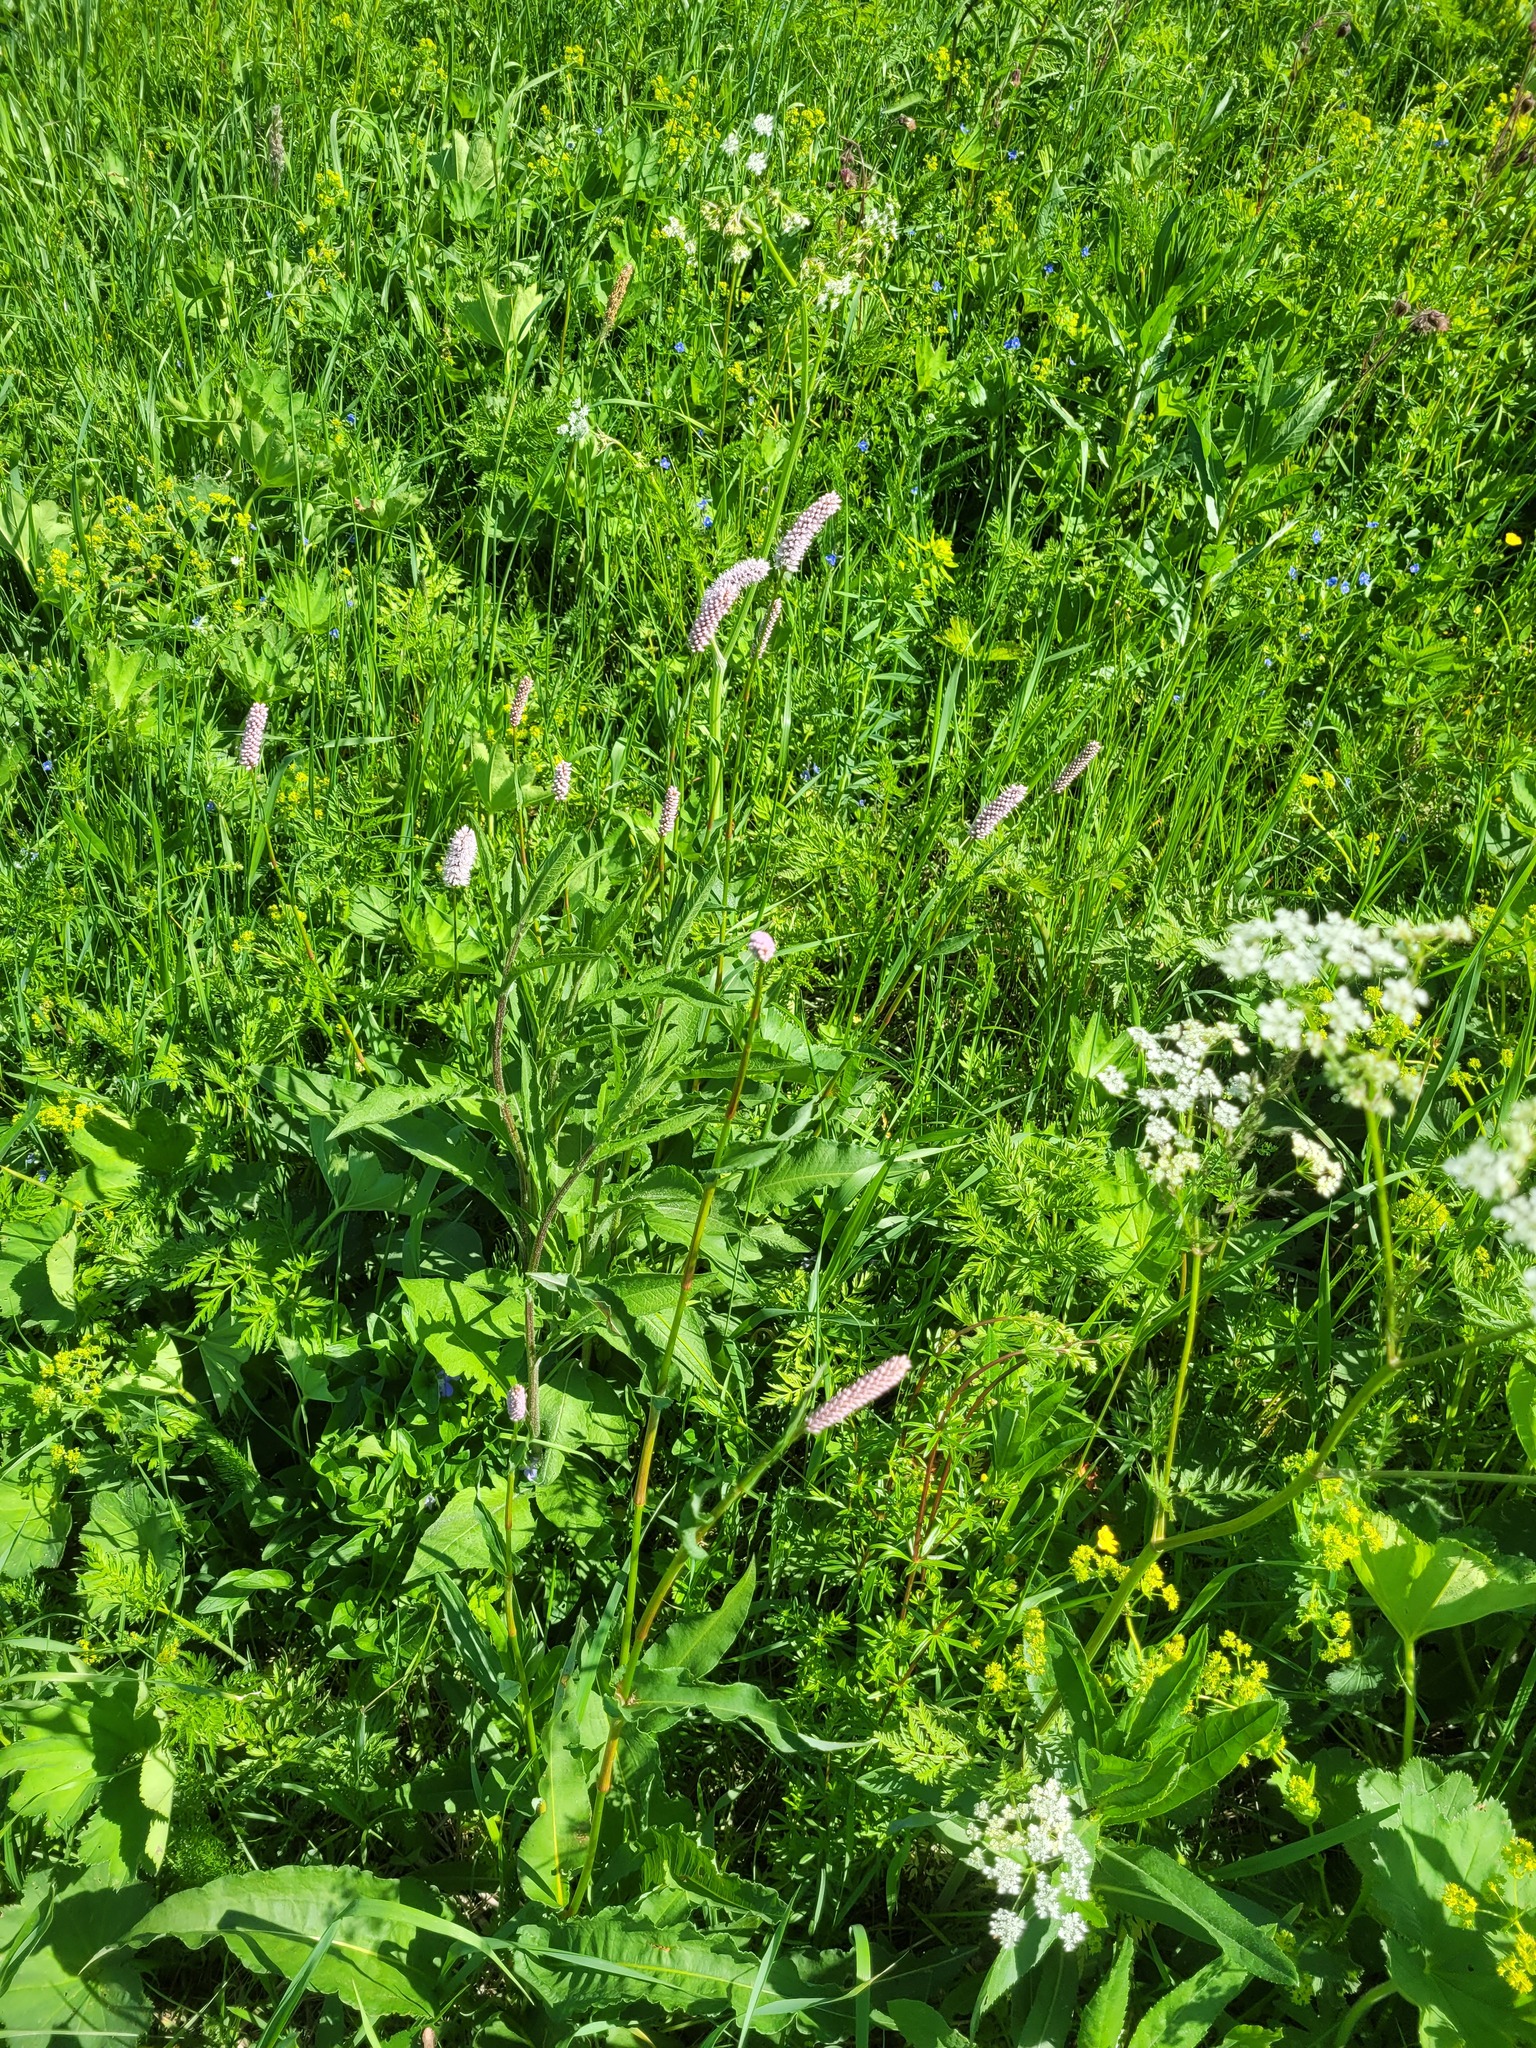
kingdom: Plantae
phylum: Tracheophyta
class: Magnoliopsida
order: Caryophyllales
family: Polygonaceae
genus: Bistorta
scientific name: Bistorta officinalis
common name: Common bistort
